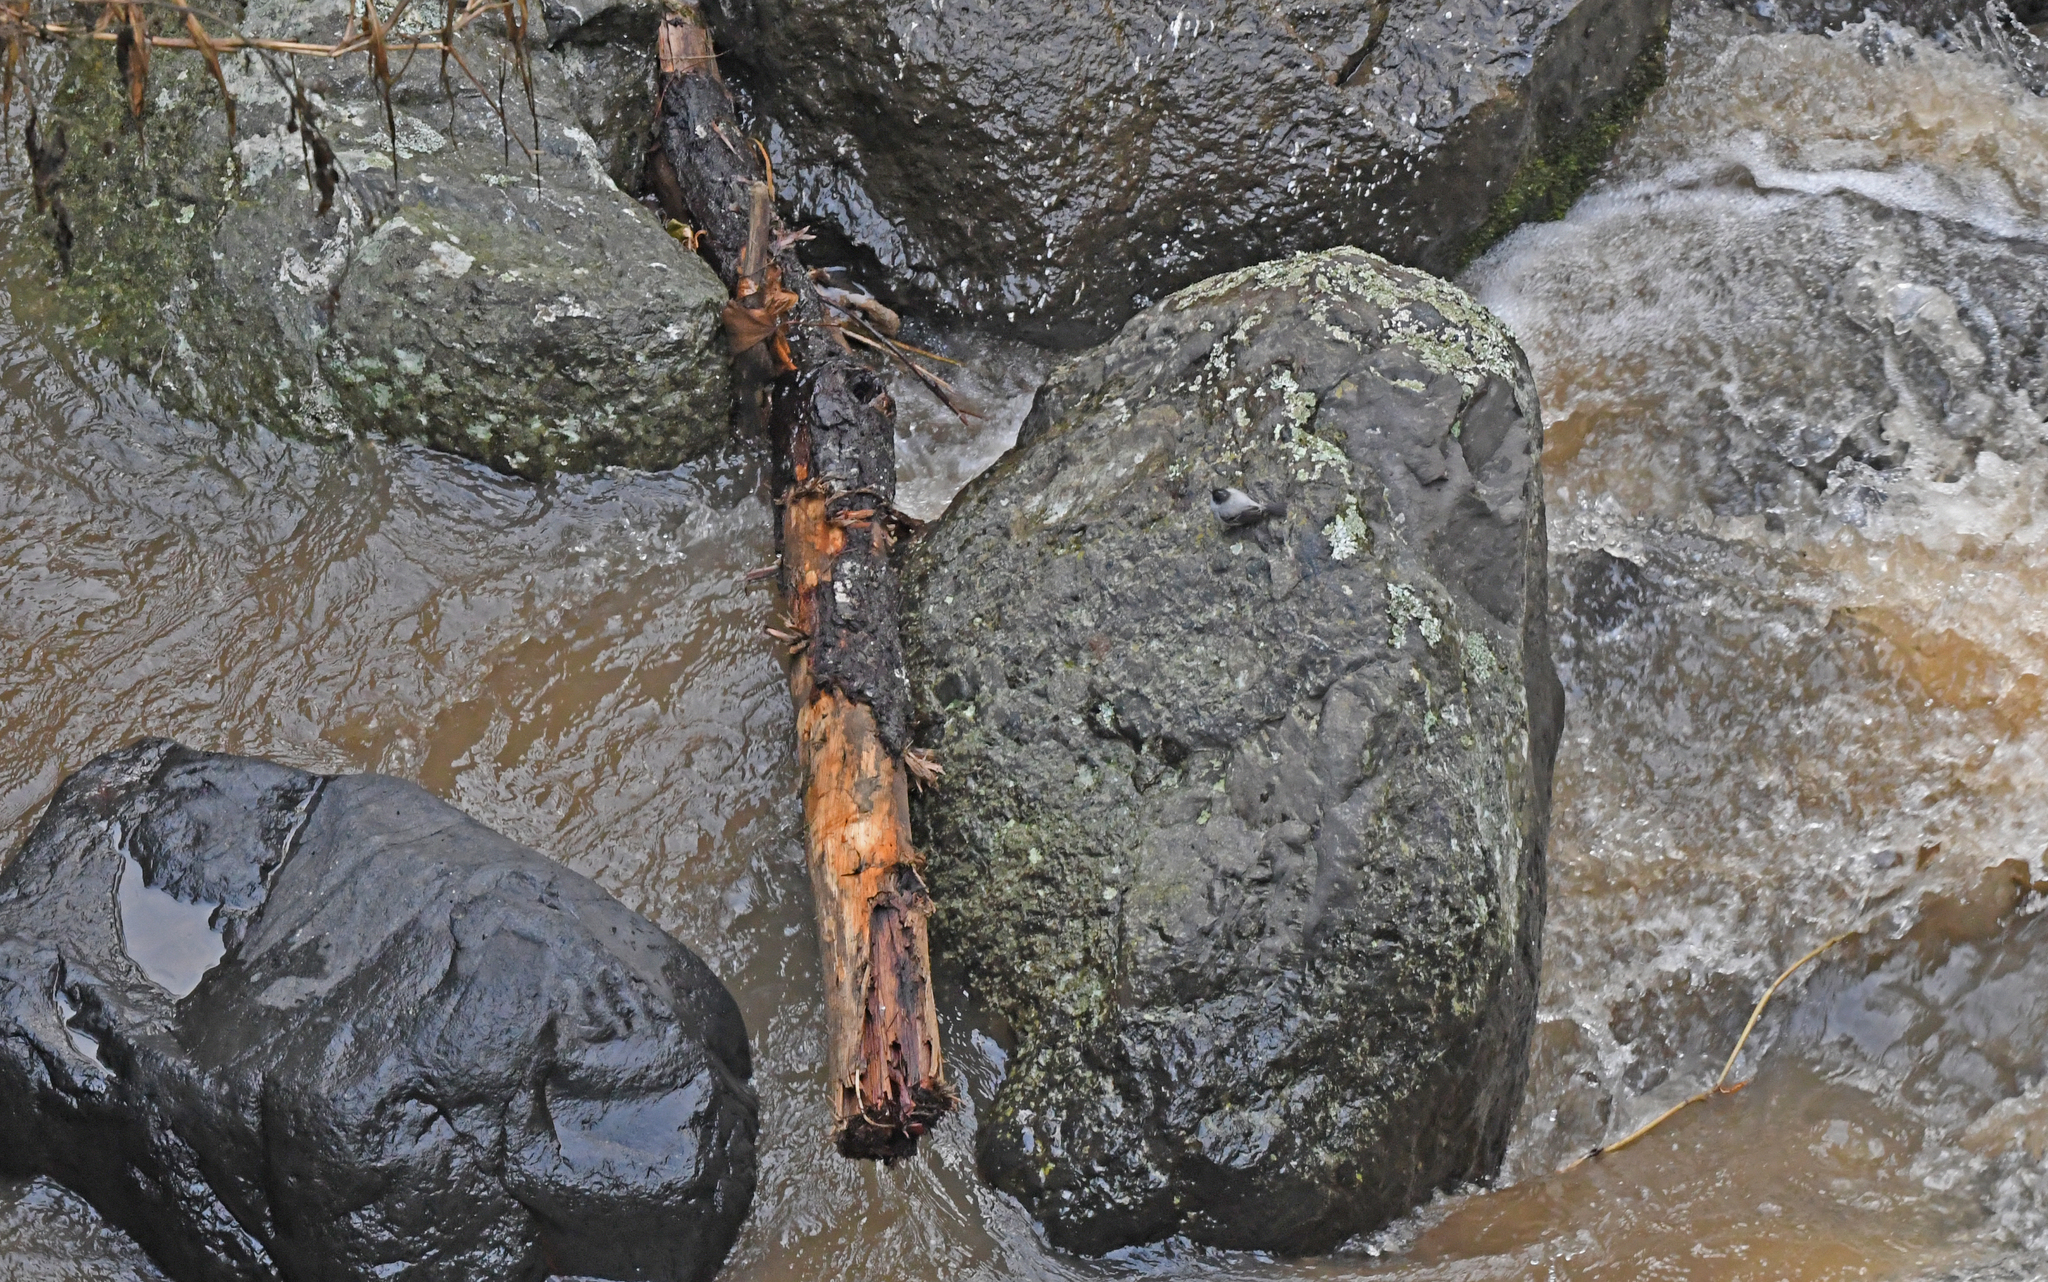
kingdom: Animalia
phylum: Chordata
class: Aves
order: Passeriformes
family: Tyrannidae
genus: Serpophaga
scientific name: Serpophaga cinerea
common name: Torrent tyrannulet
